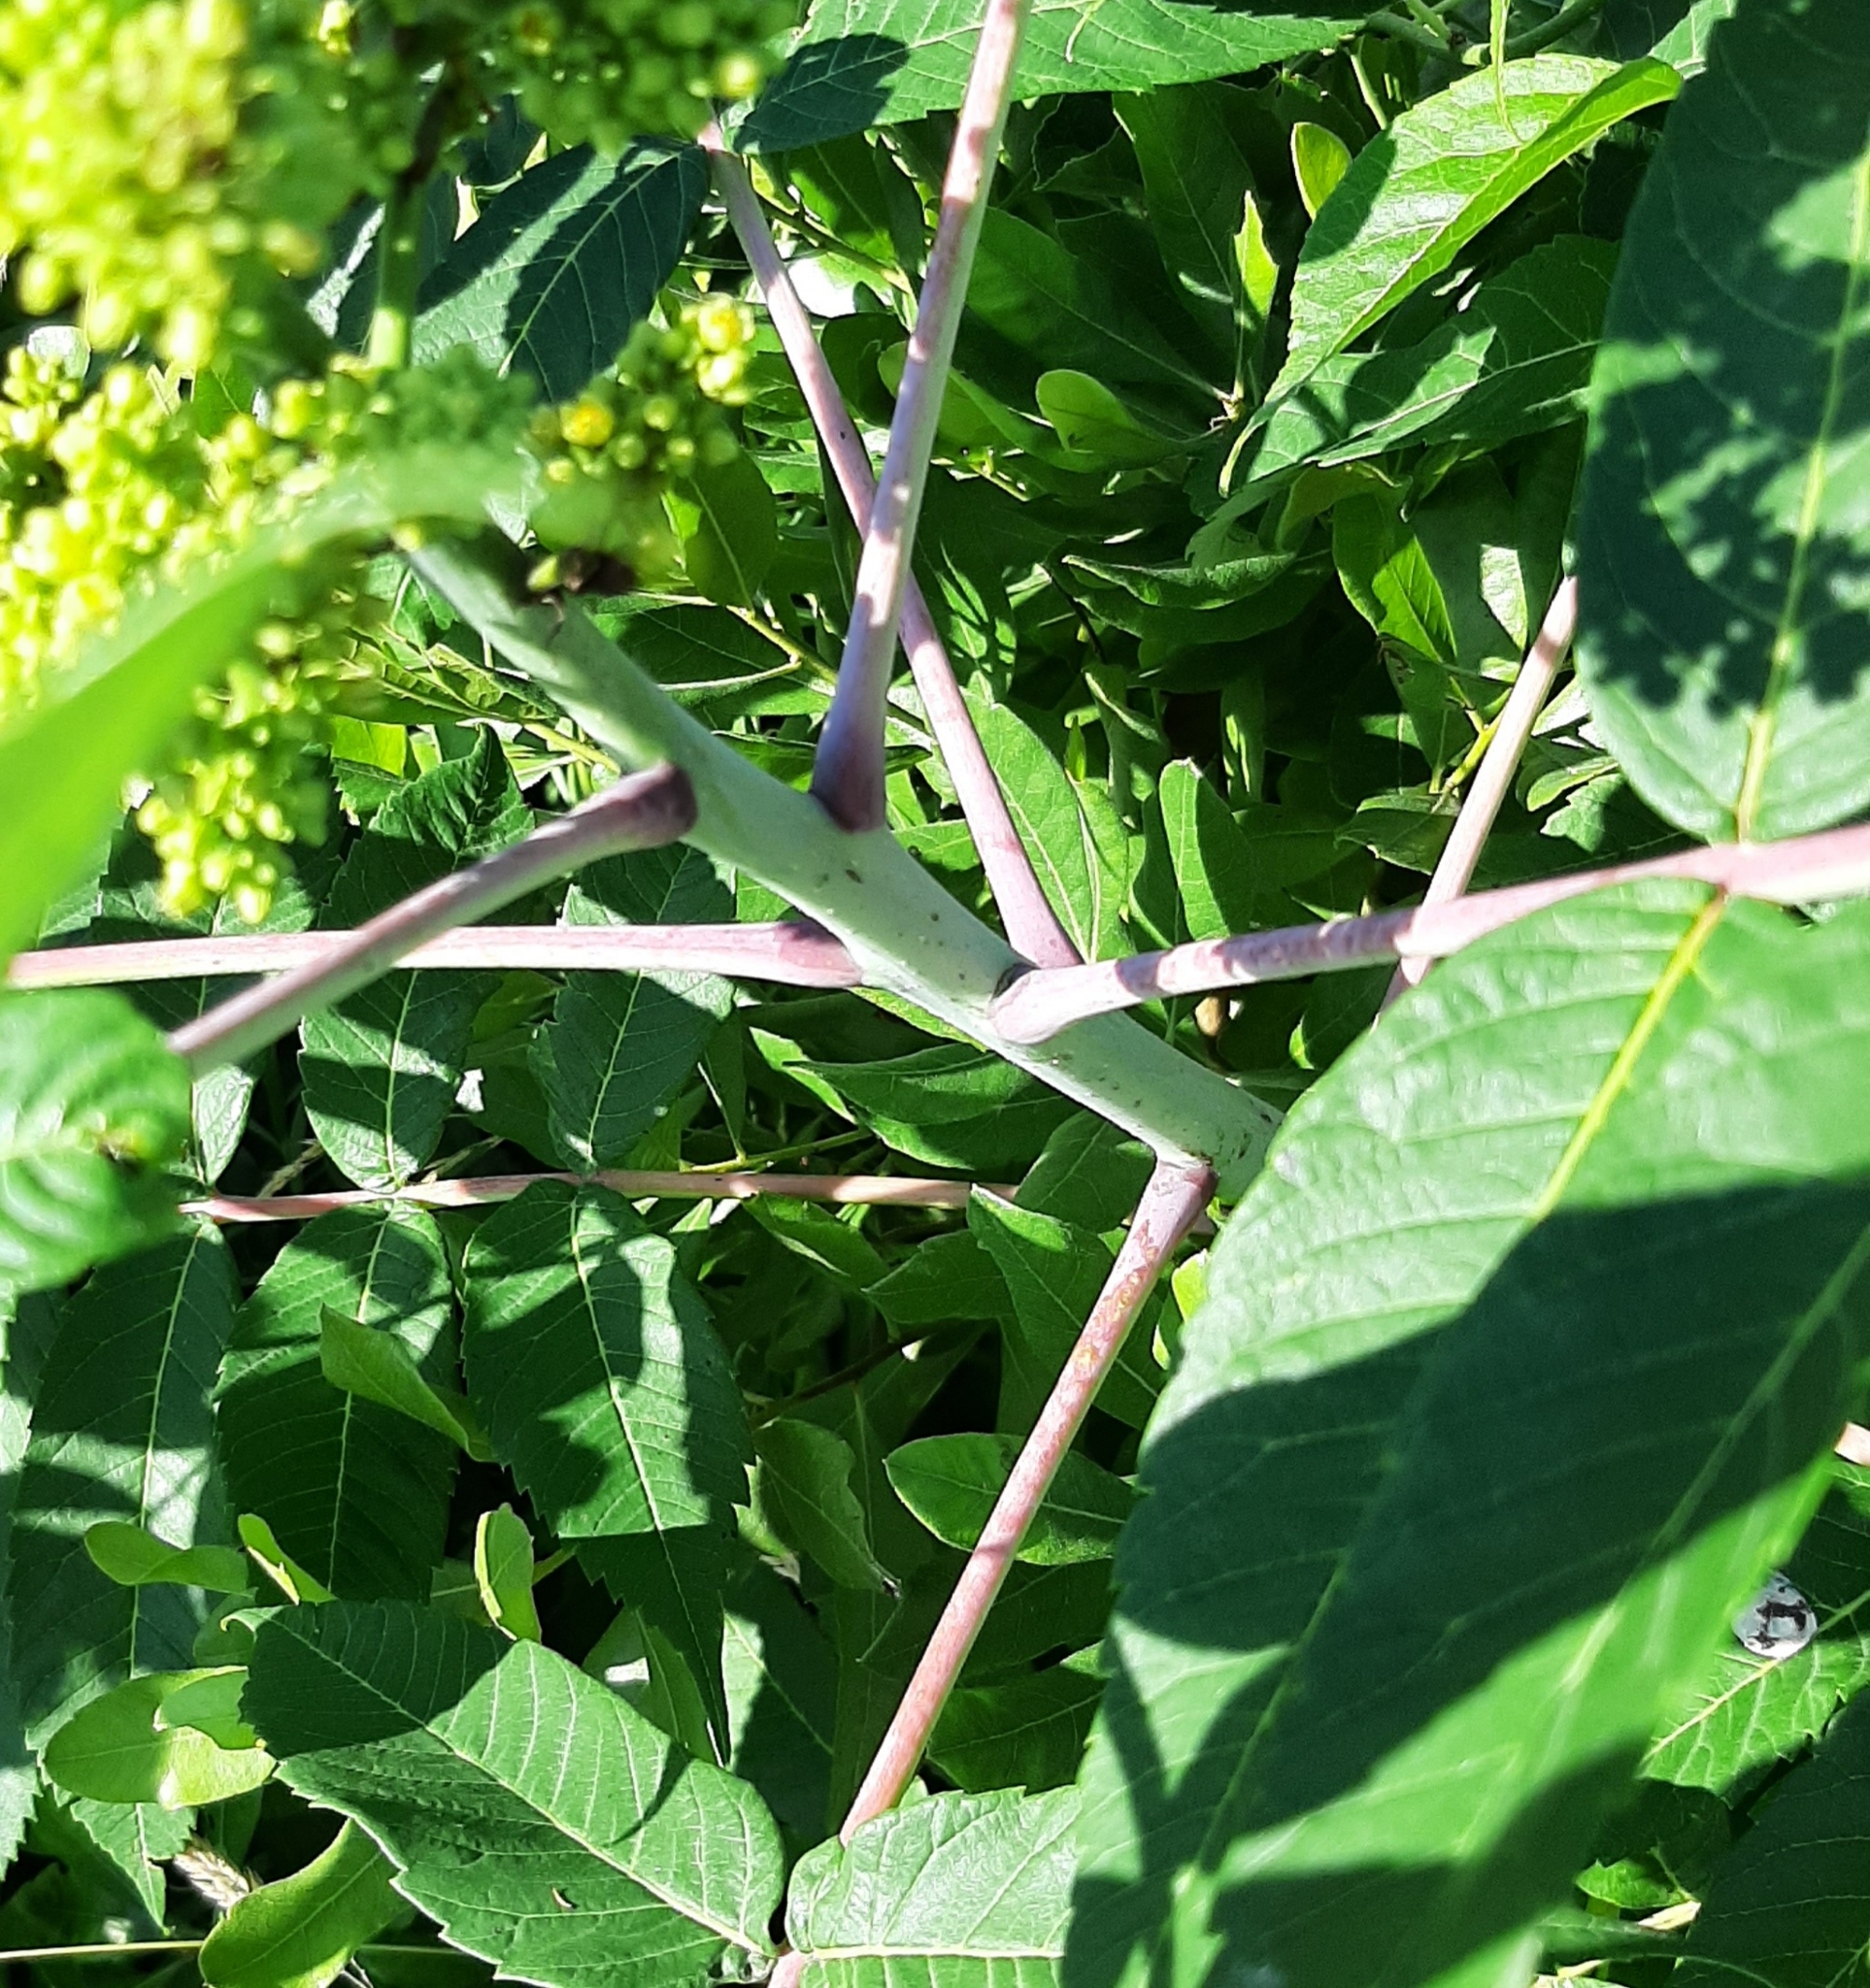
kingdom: Plantae
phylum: Tracheophyta
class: Magnoliopsida
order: Sapindales
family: Anacardiaceae
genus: Rhus
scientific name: Rhus glabra
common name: Scarlet sumac
